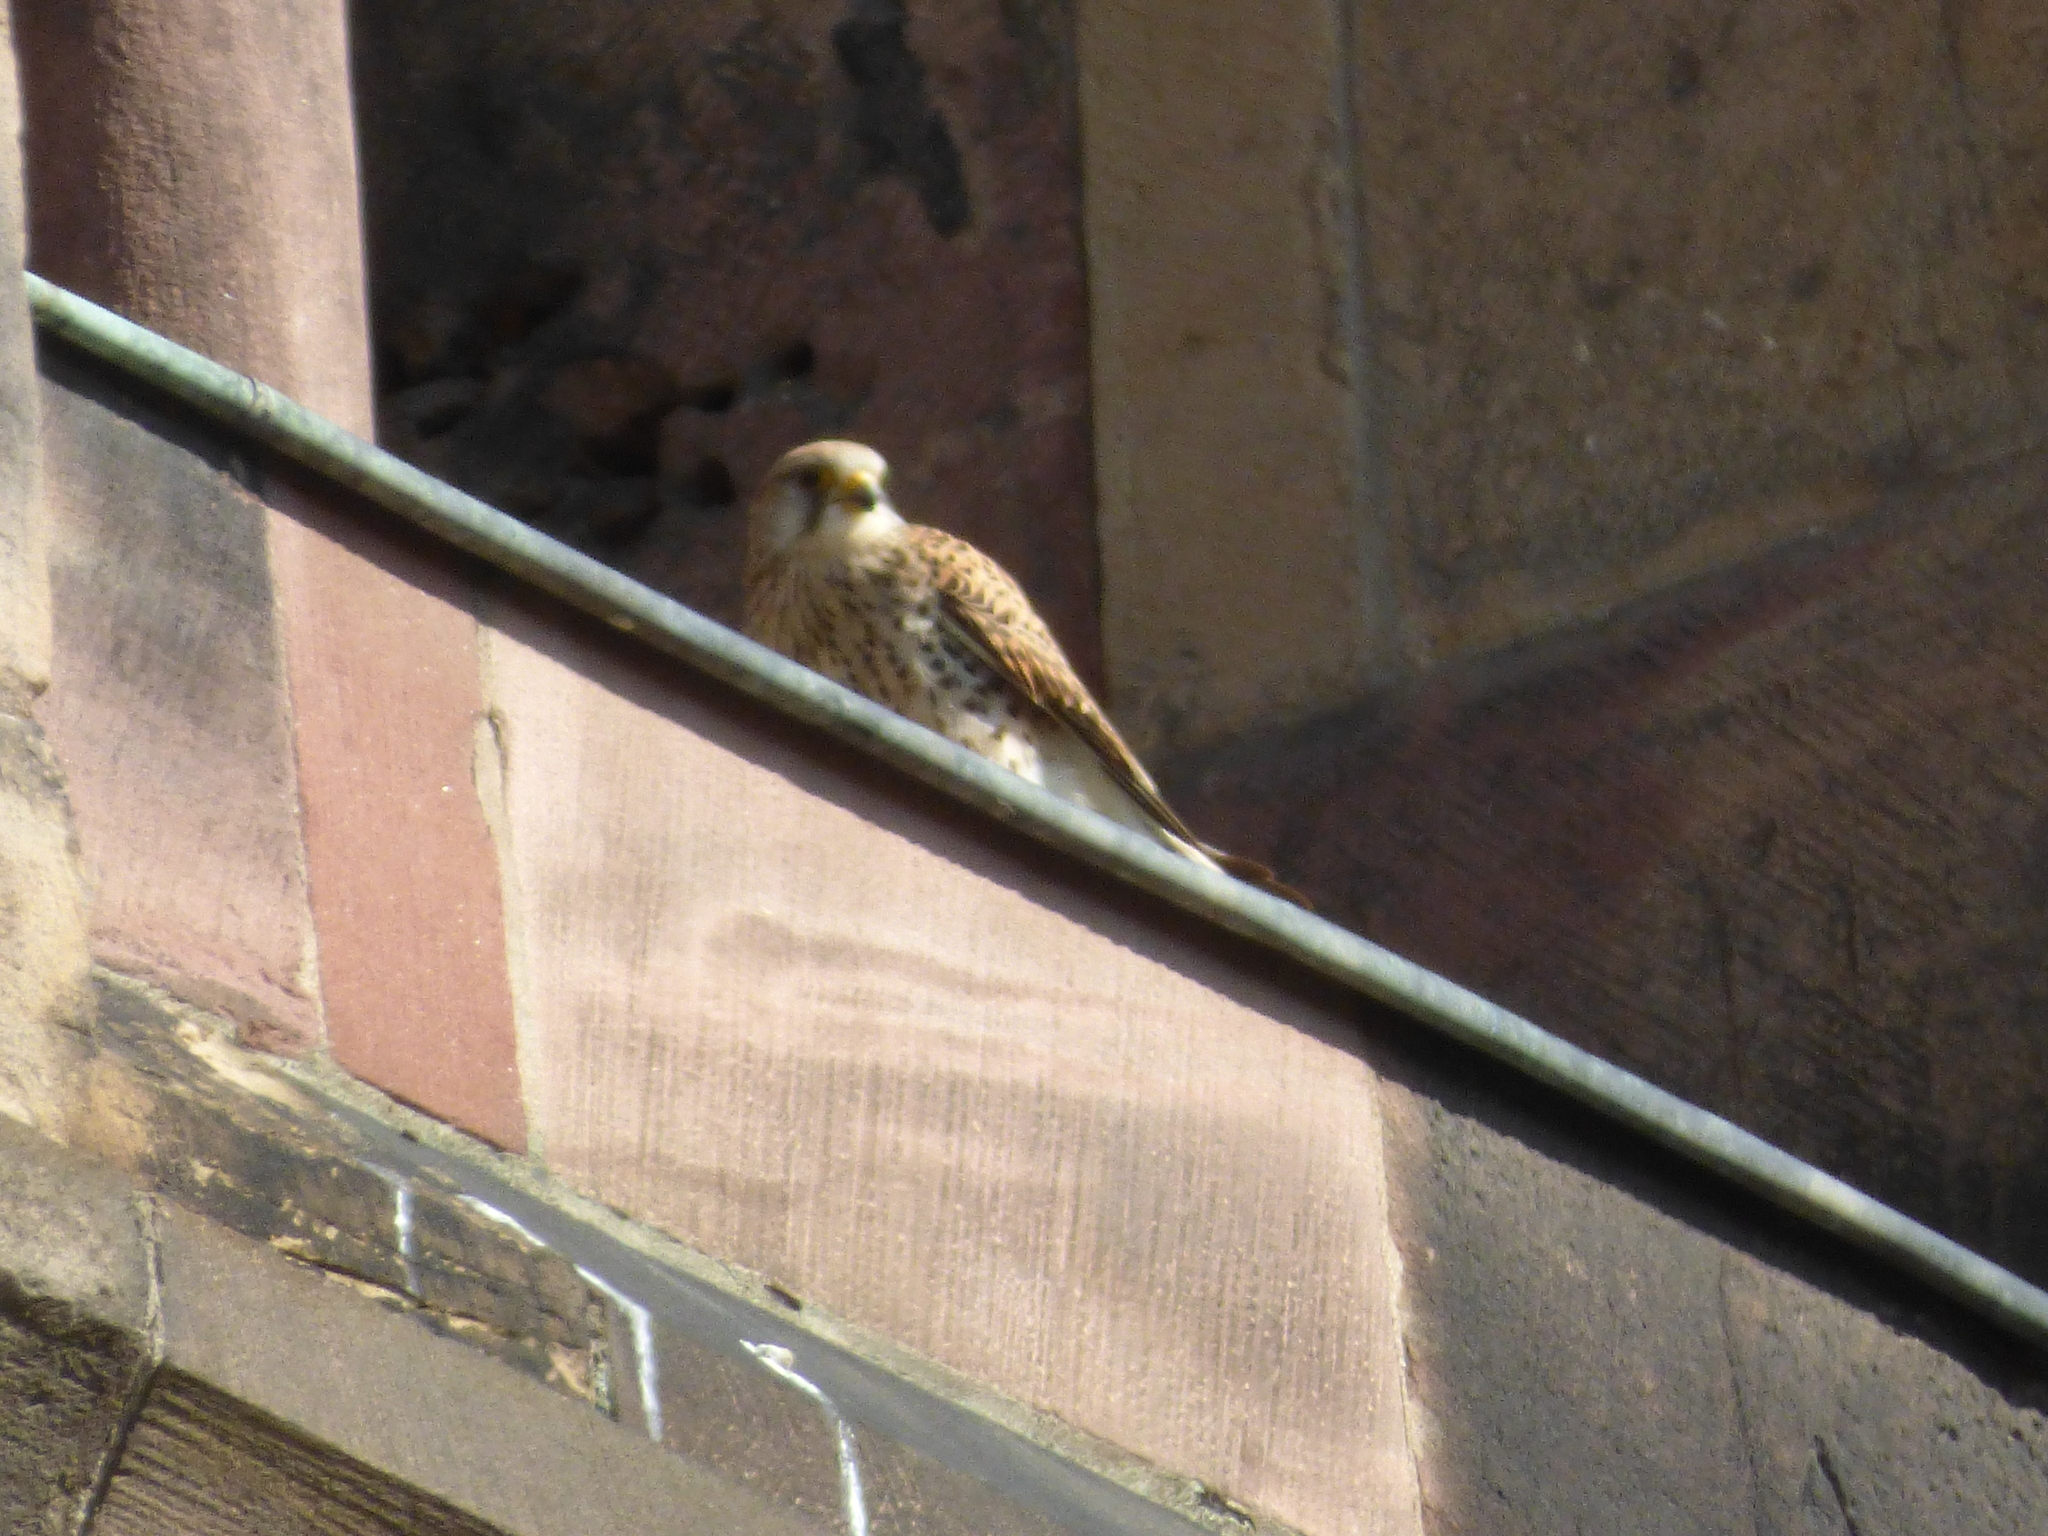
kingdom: Animalia
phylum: Chordata
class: Aves
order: Falconiformes
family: Falconidae
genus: Falco
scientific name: Falco tinnunculus
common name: Common kestrel
